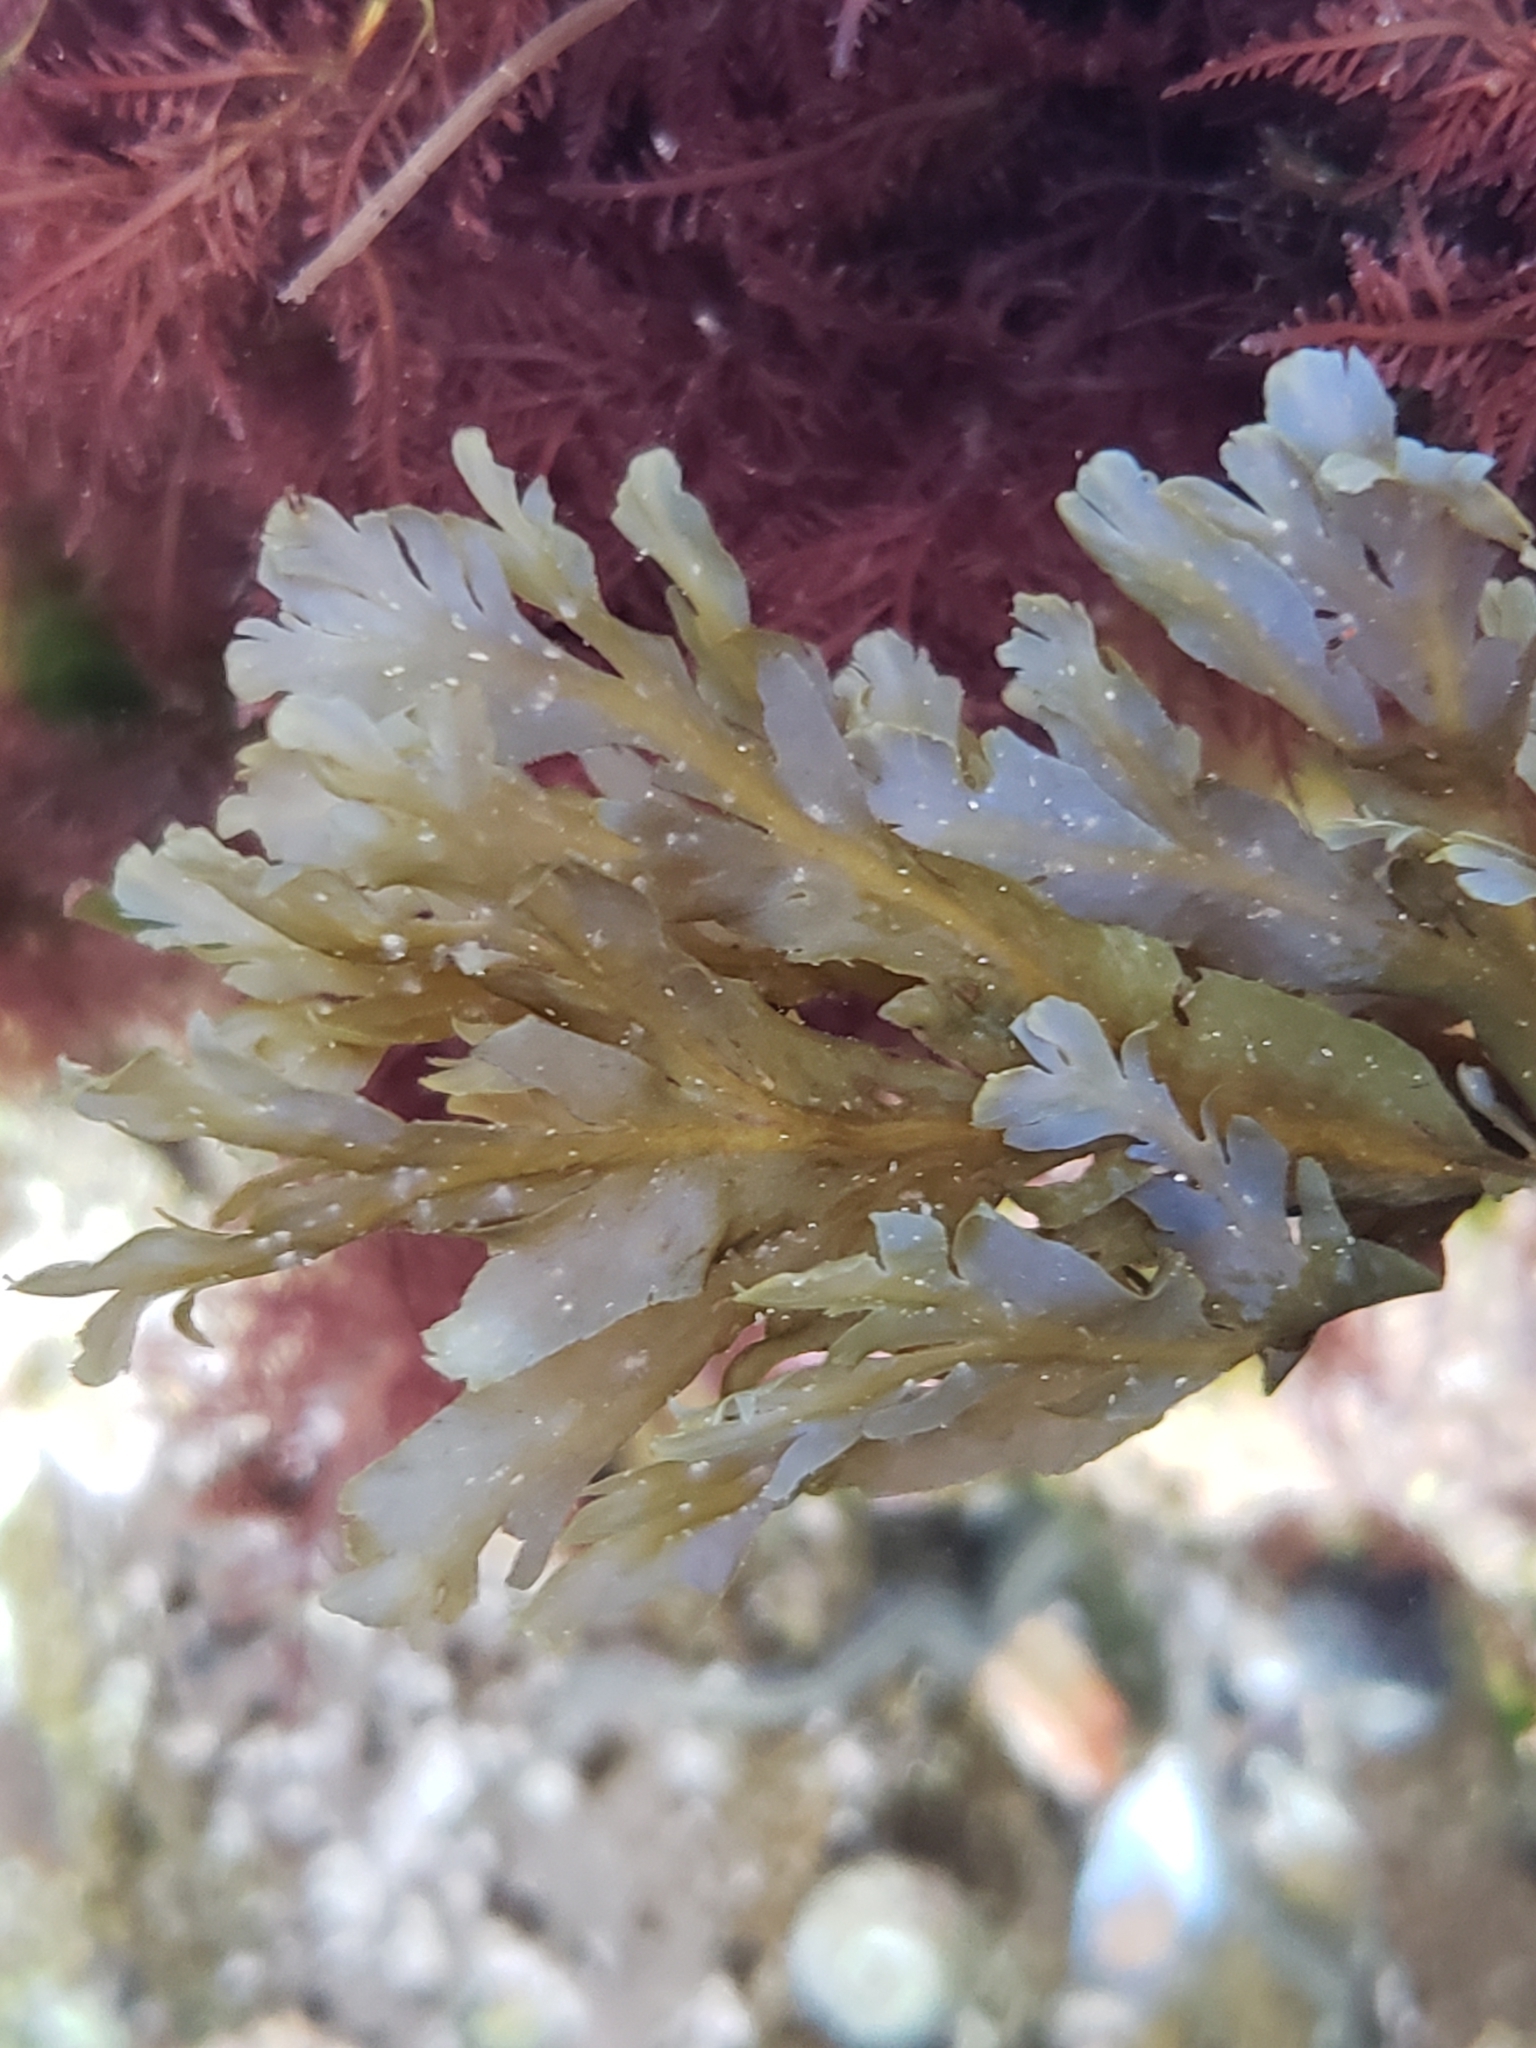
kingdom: Chromista
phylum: Ochrophyta
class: Phaeophyceae
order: Dictyotales
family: Dictyotaceae
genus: Dictyopteris
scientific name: Dictyopteris undulata
